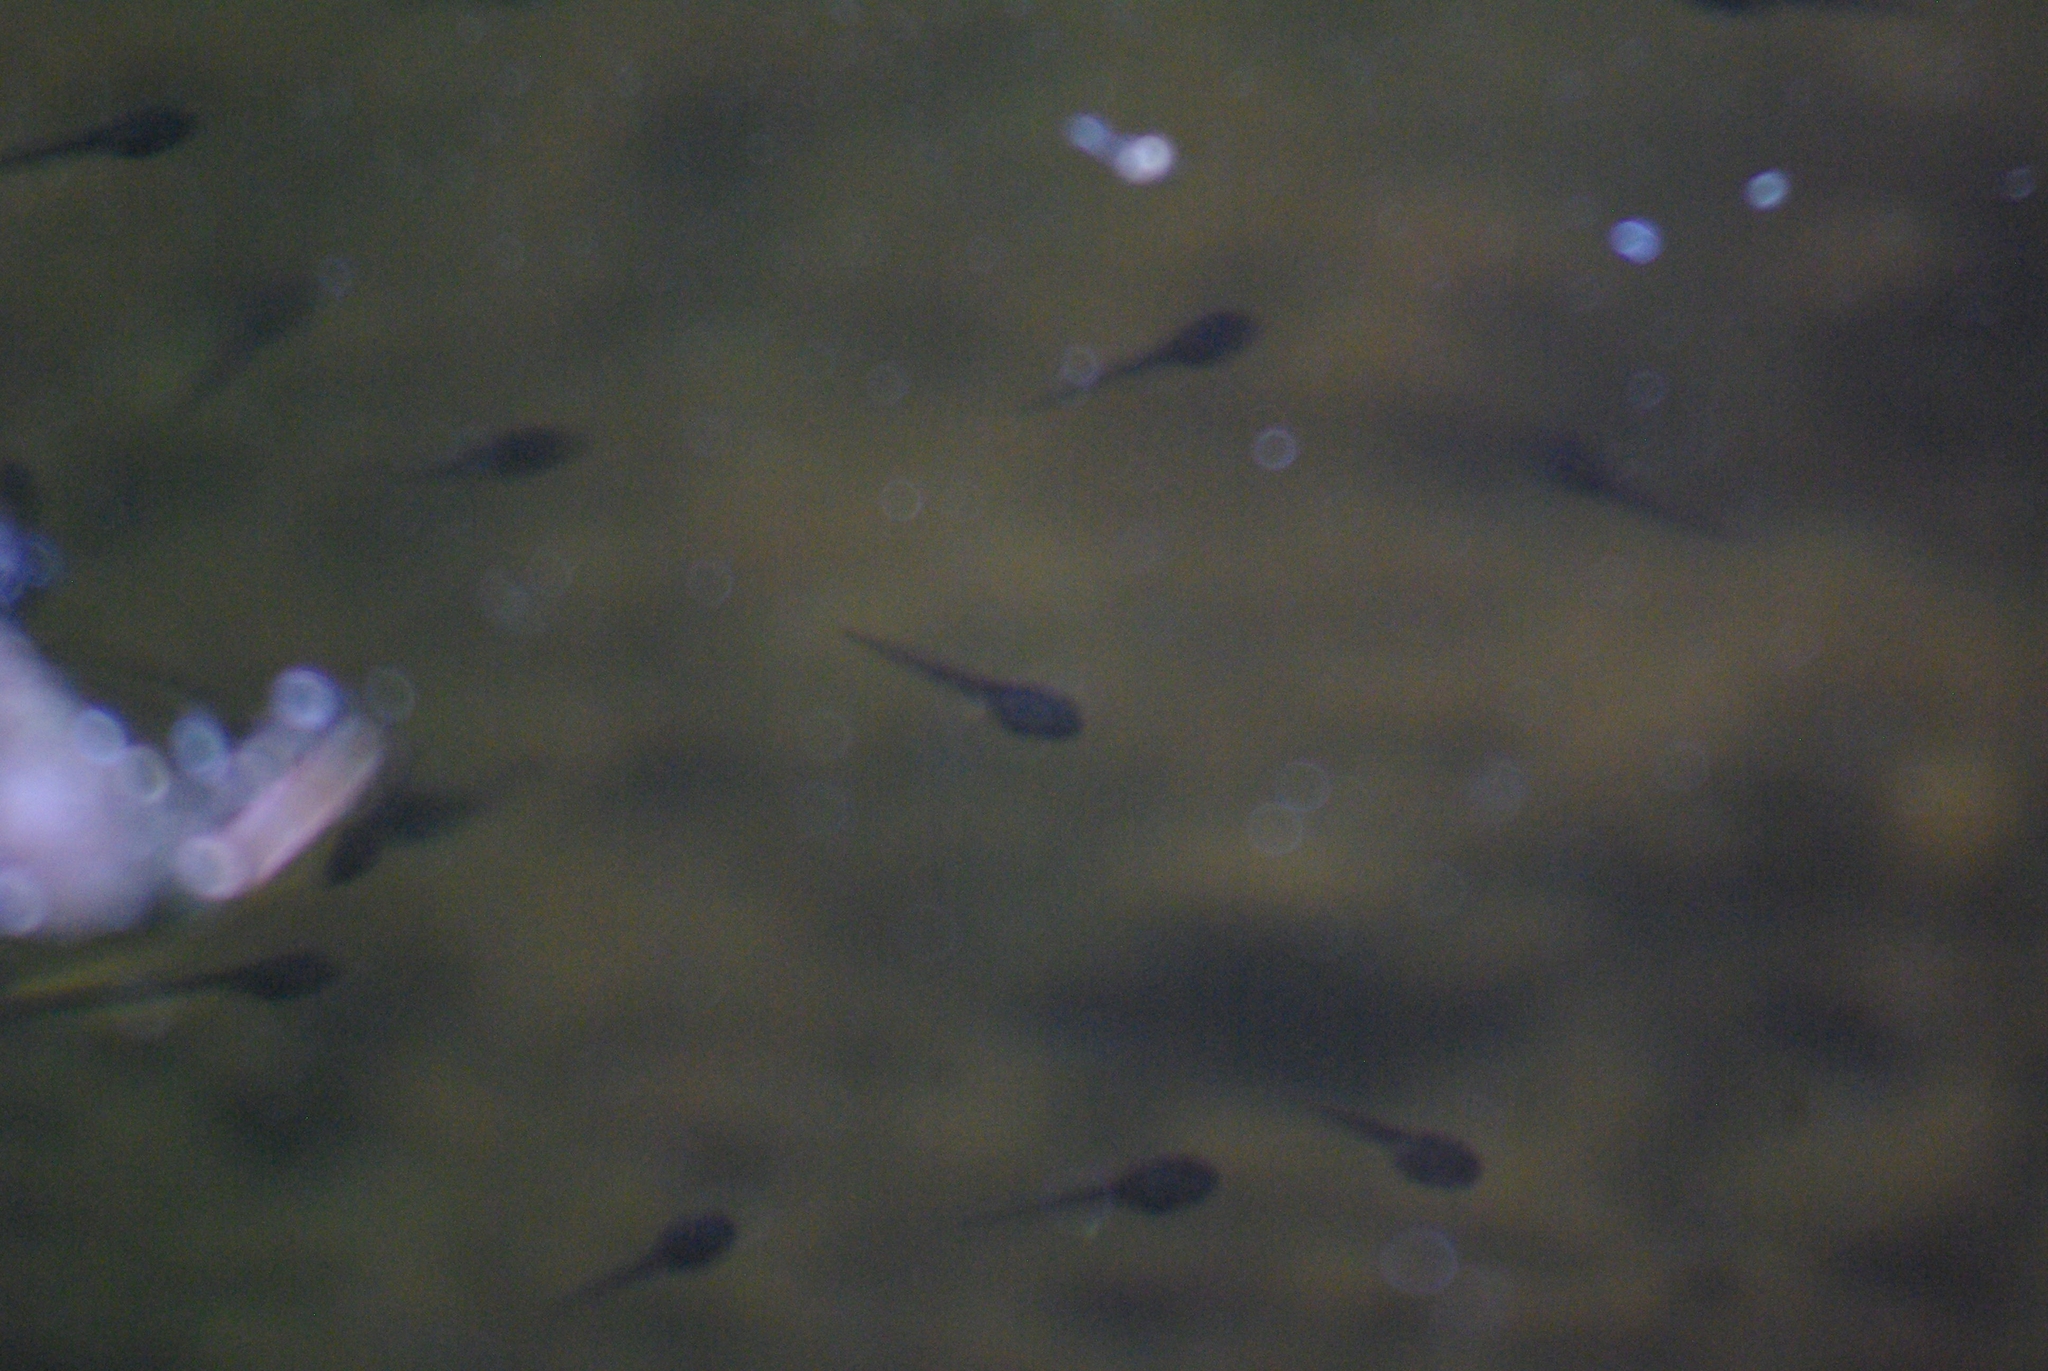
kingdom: Animalia
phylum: Chordata
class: Amphibia
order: Anura
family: Ranidae
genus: Lithobates
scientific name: Lithobates sylvaticus
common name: Wood frog
